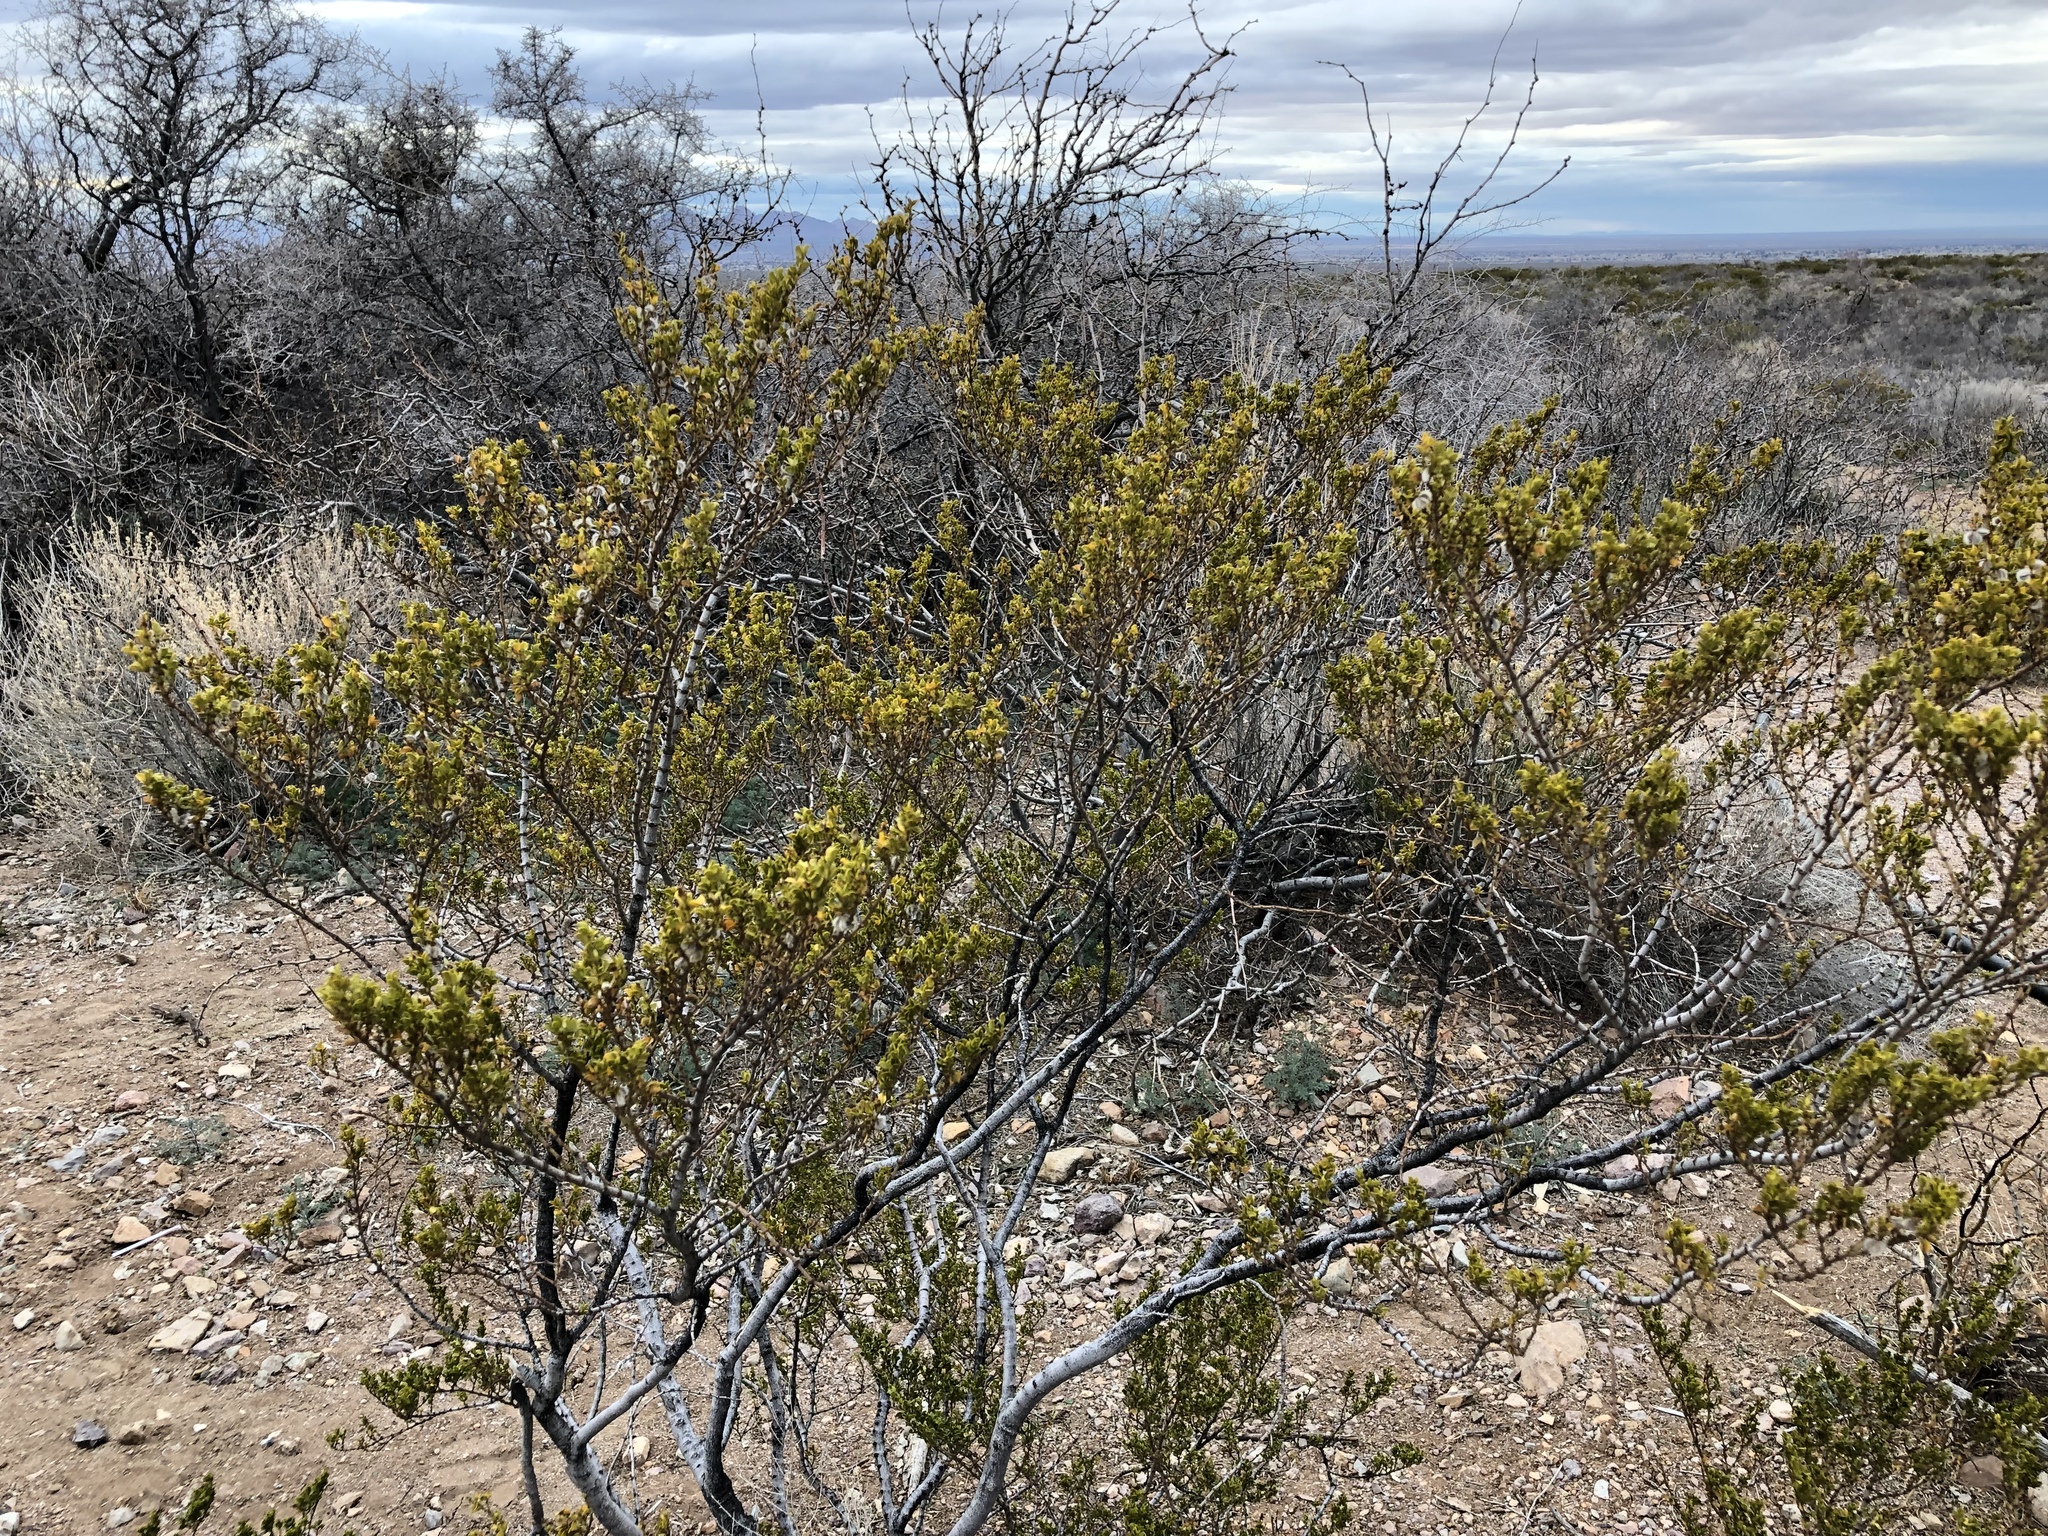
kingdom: Plantae
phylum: Tracheophyta
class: Magnoliopsida
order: Zygophyllales
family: Zygophyllaceae
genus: Larrea
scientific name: Larrea tridentata
